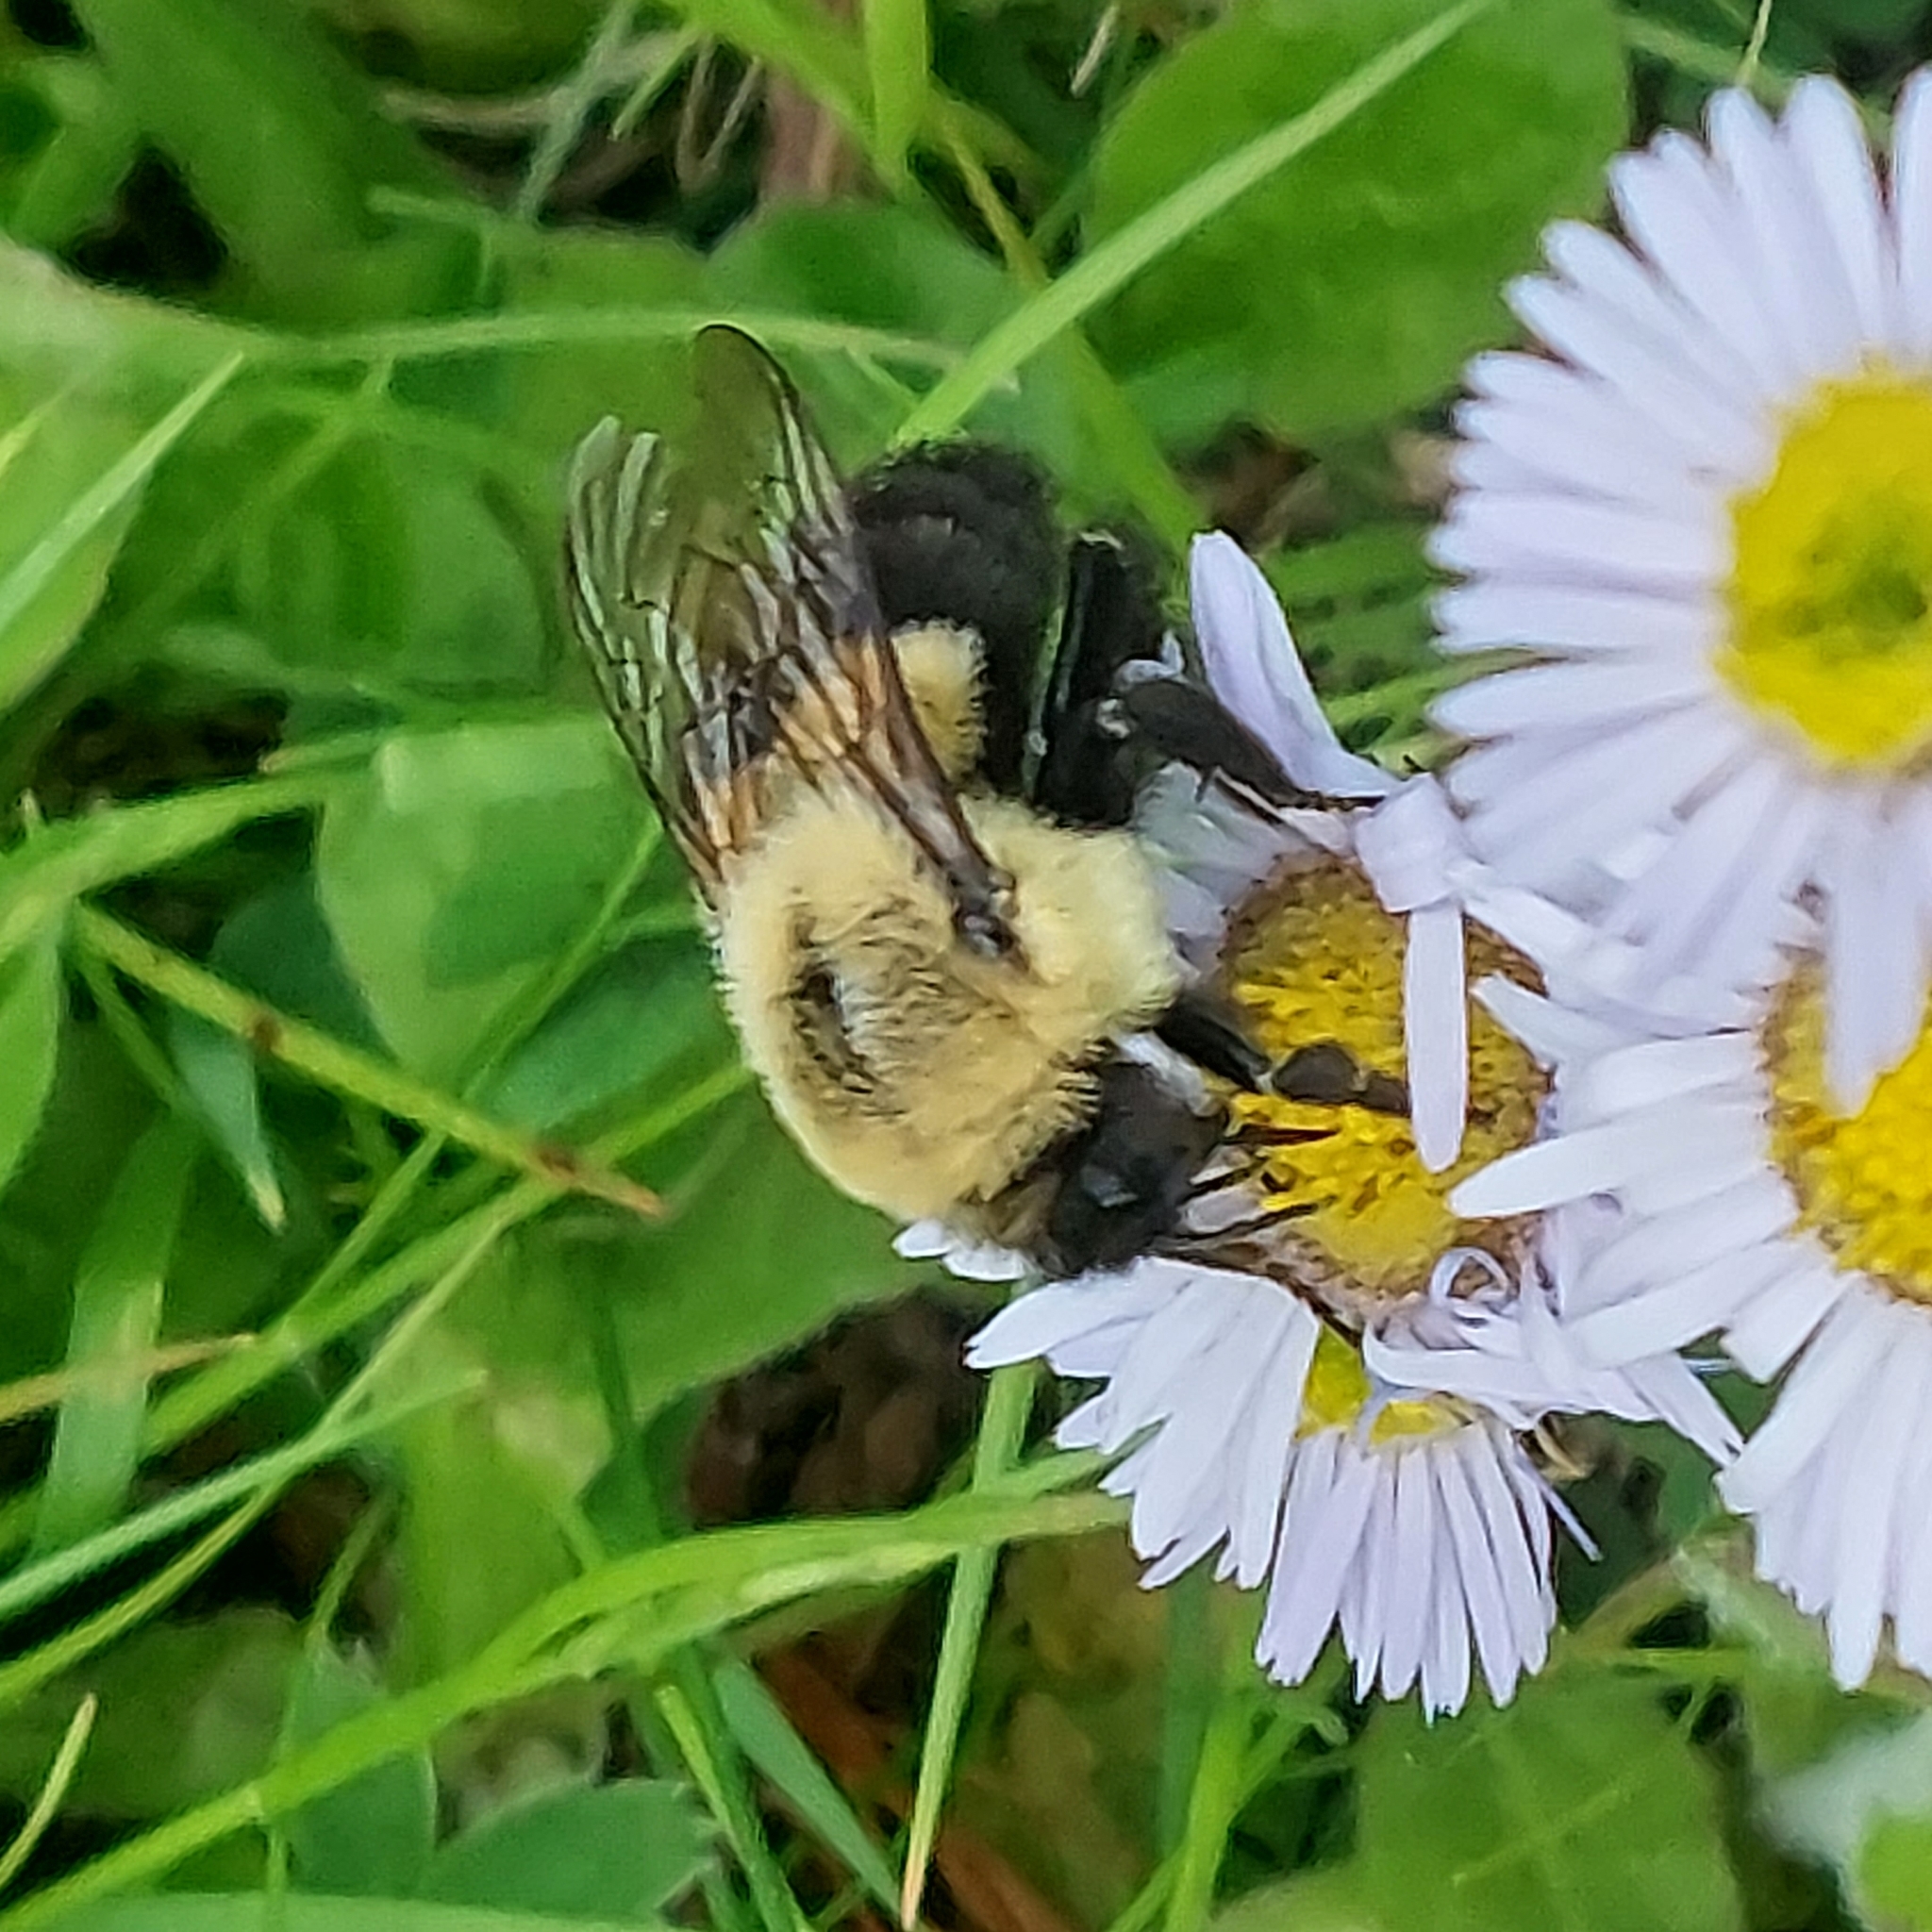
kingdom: Animalia
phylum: Arthropoda
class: Insecta
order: Hymenoptera
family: Apidae
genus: Bombus
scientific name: Bombus impatiens
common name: Common eastern bumble bee
